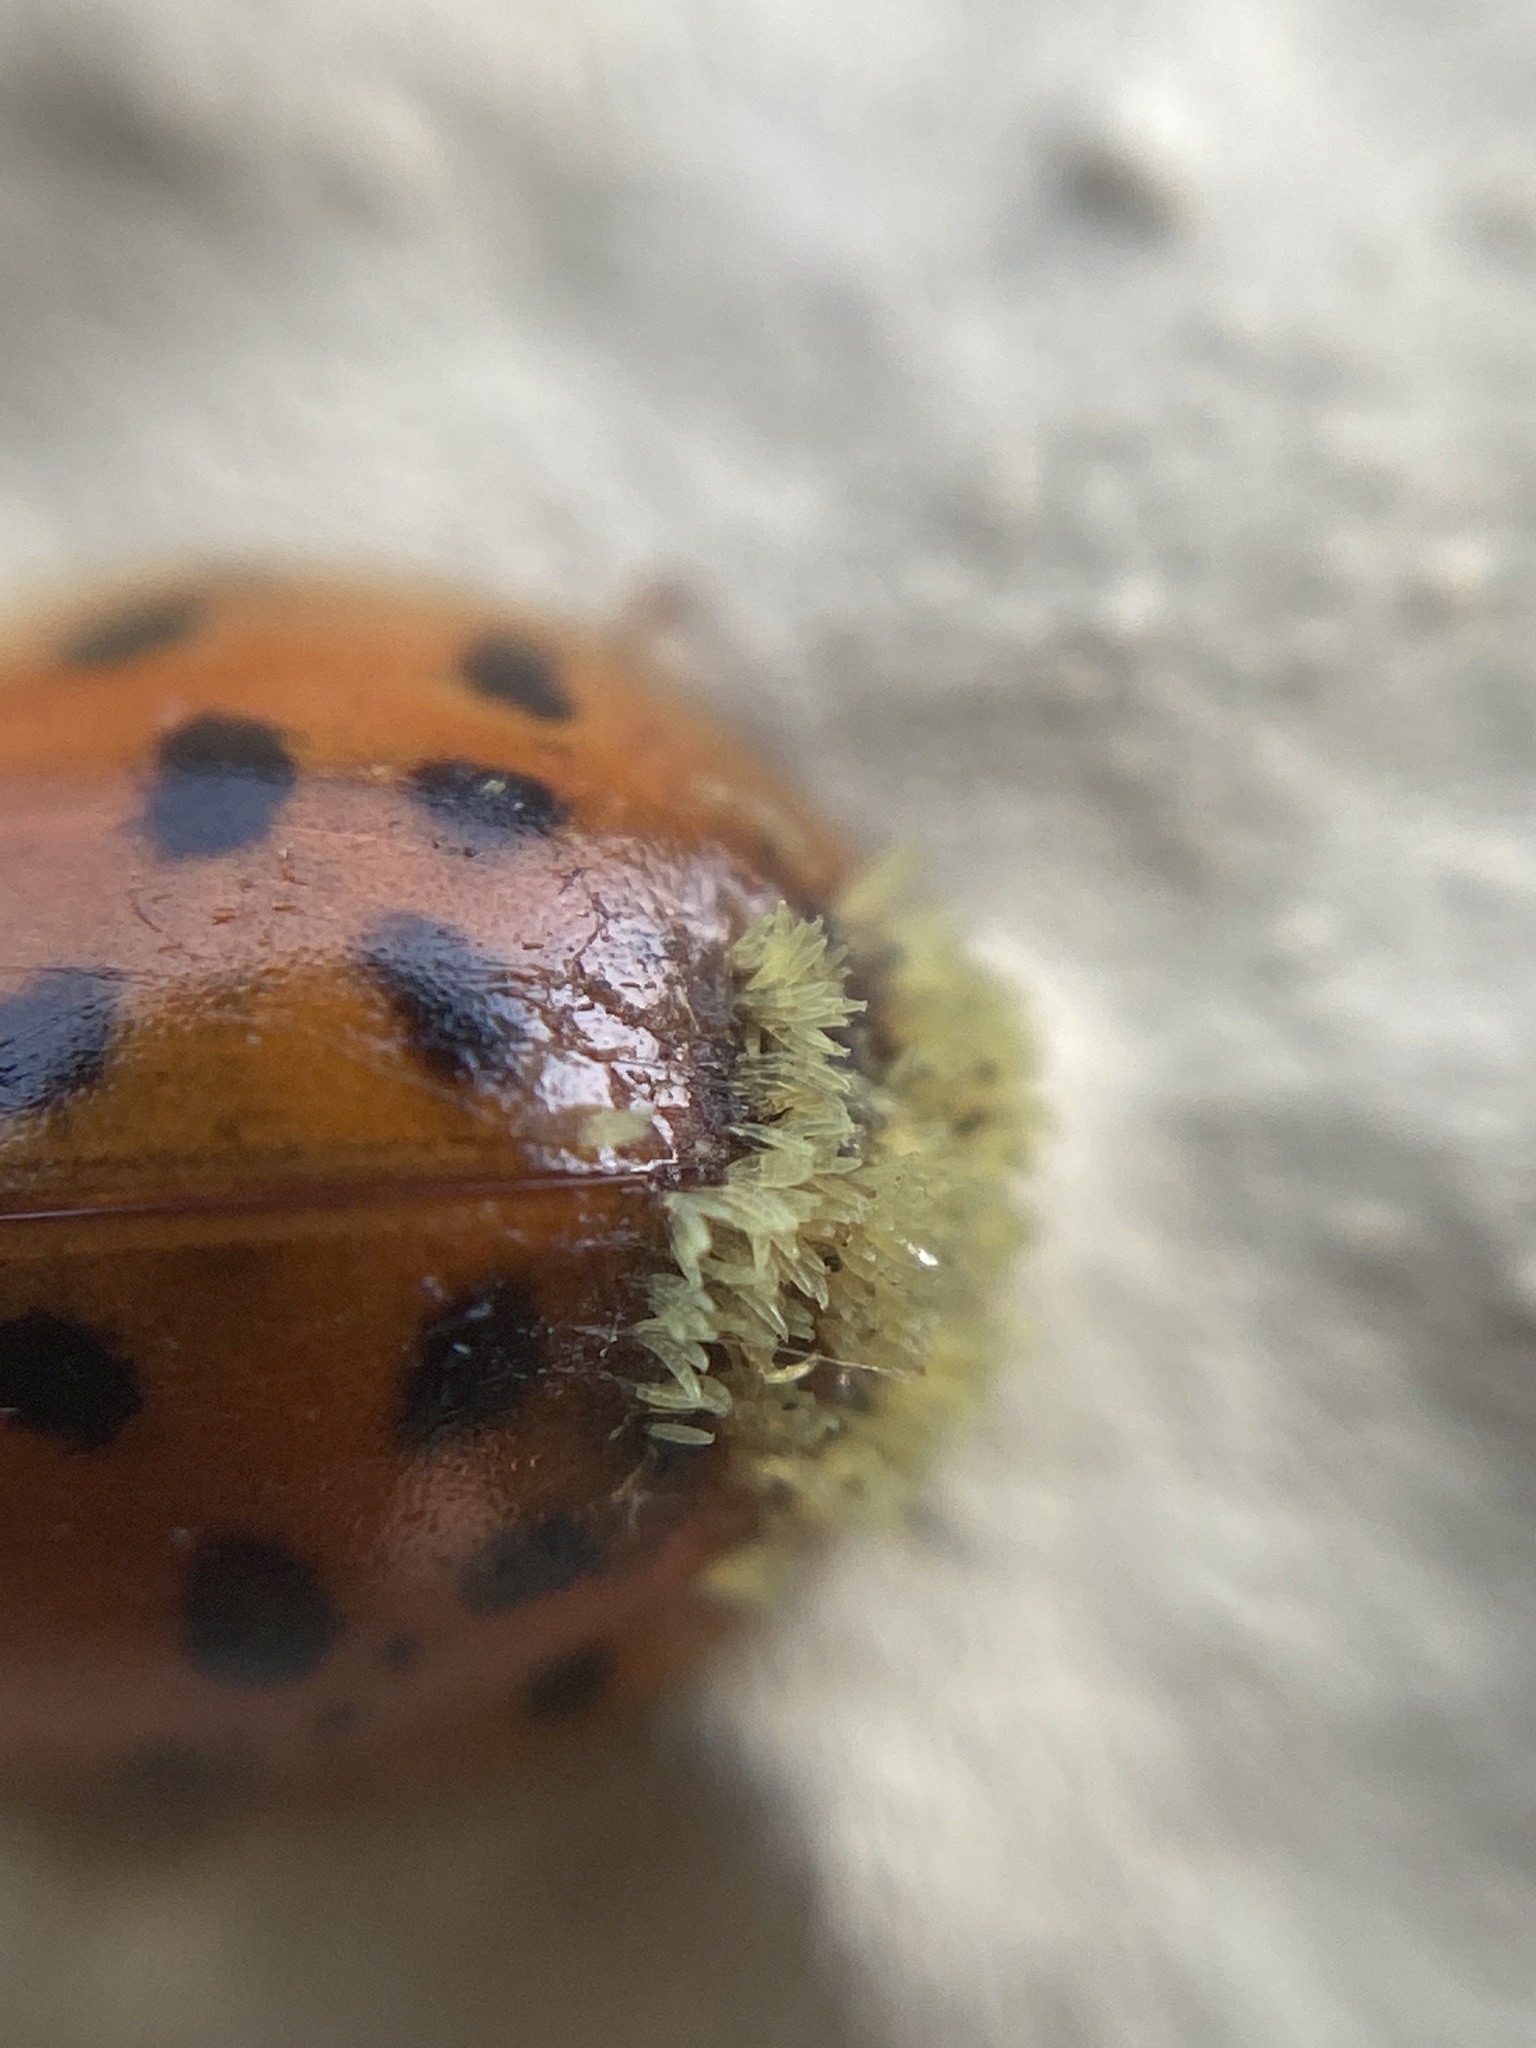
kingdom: Fungi
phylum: Ascomycota
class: Laboulbeniomycetes
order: Laboulbeniales
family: Laboulbeniaceae
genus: Hesperomyces
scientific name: Hesperomyces harmoniae
